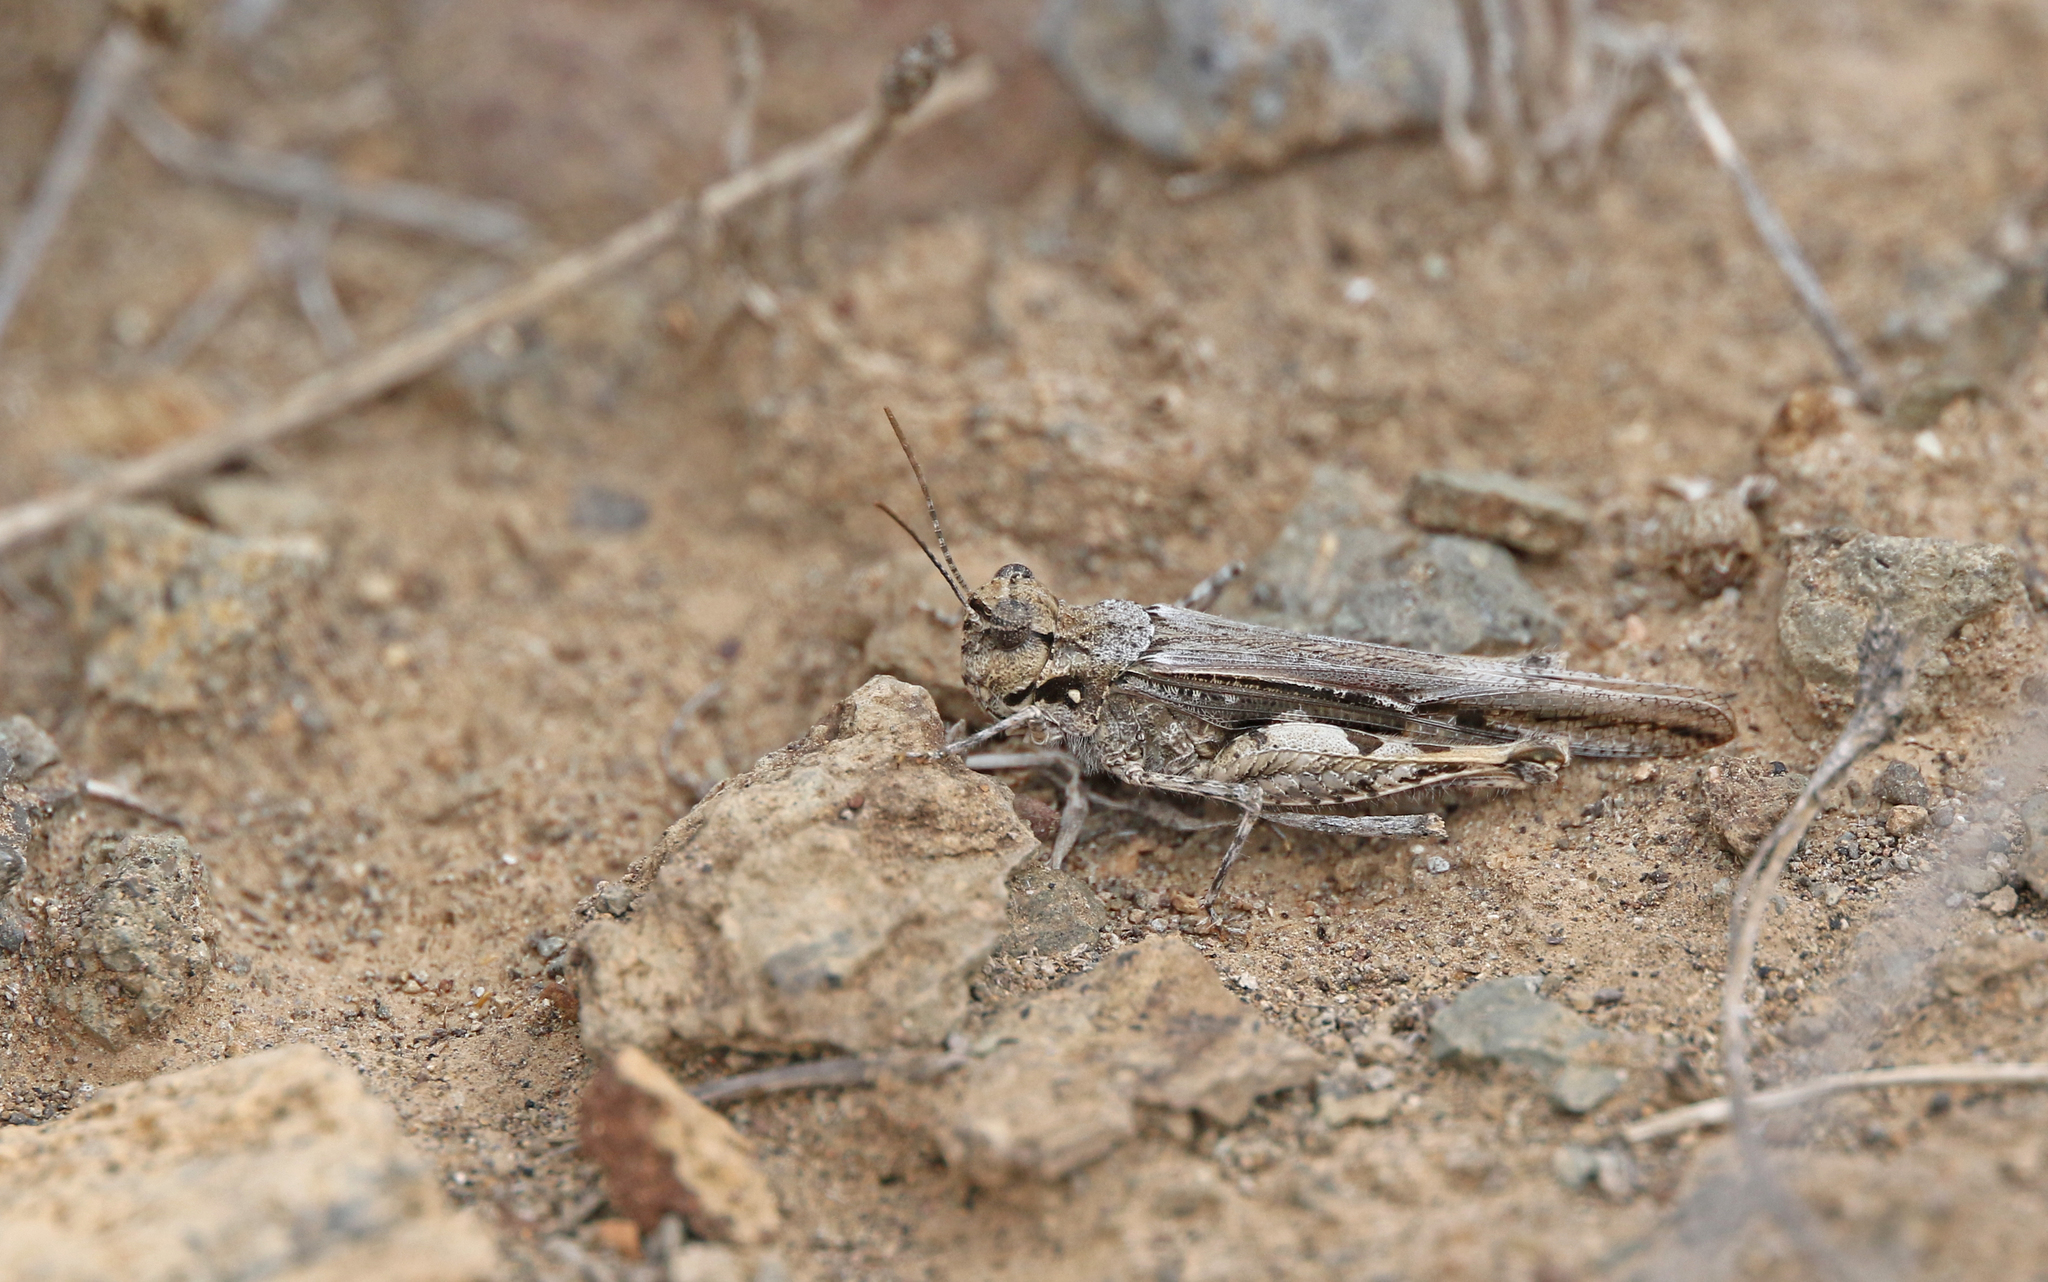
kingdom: Animalia
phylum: Arthropoda
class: Insecta
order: Orthoptera
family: Acrididae
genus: Acrotylus
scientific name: Acrotylus insubricus
